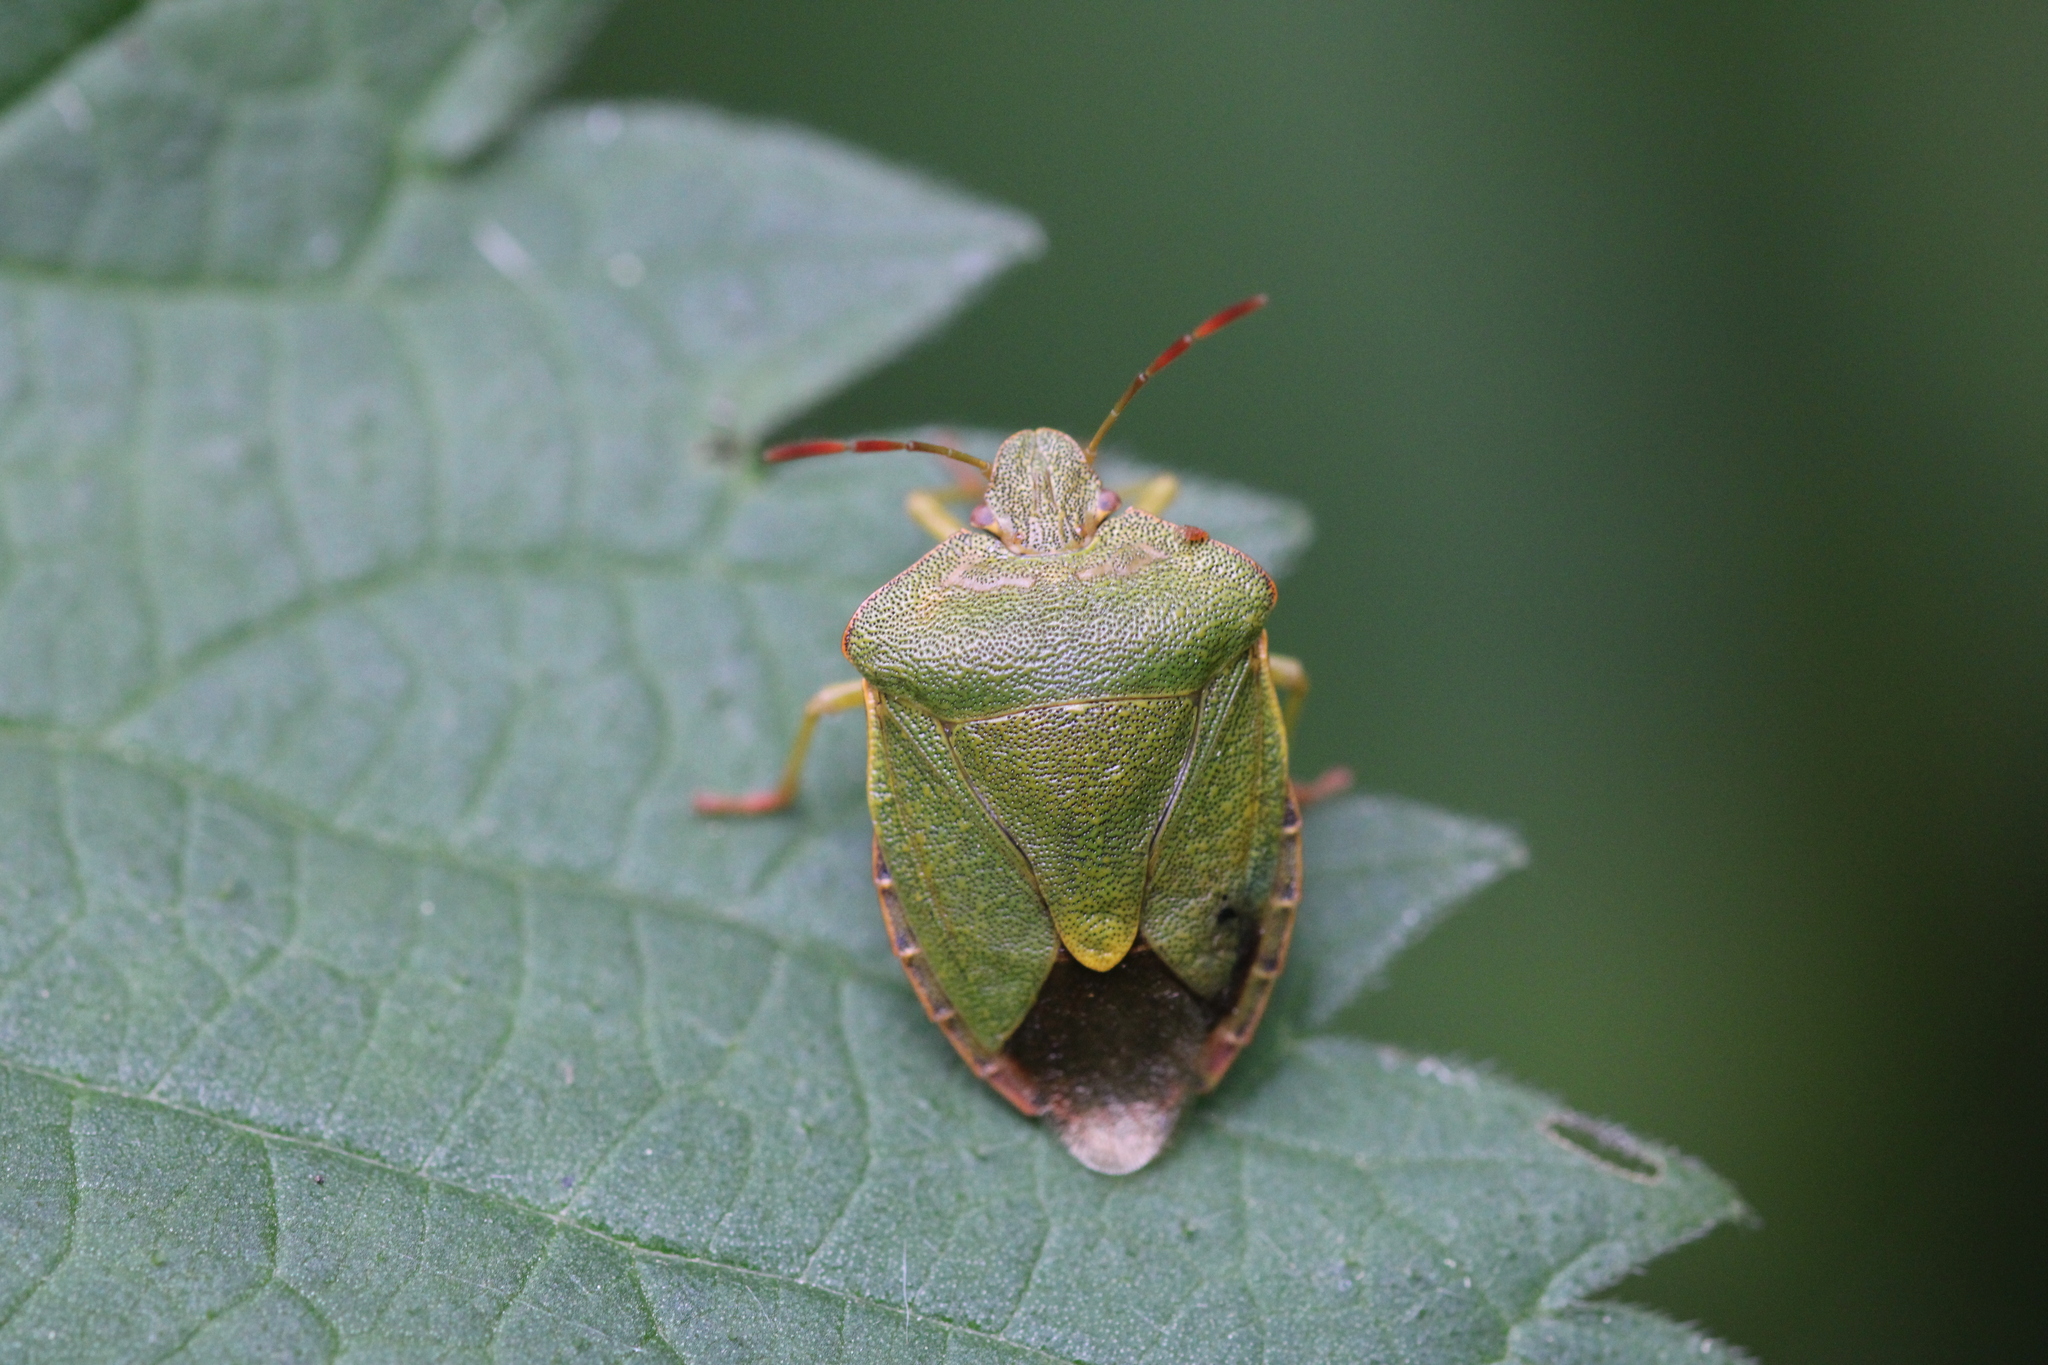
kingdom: Animalia
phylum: Arthropoda
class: Insecta
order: Hemiptera
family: Pentatomidae
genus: Palomena
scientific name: Palomena prasina
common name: Green shieldbug
